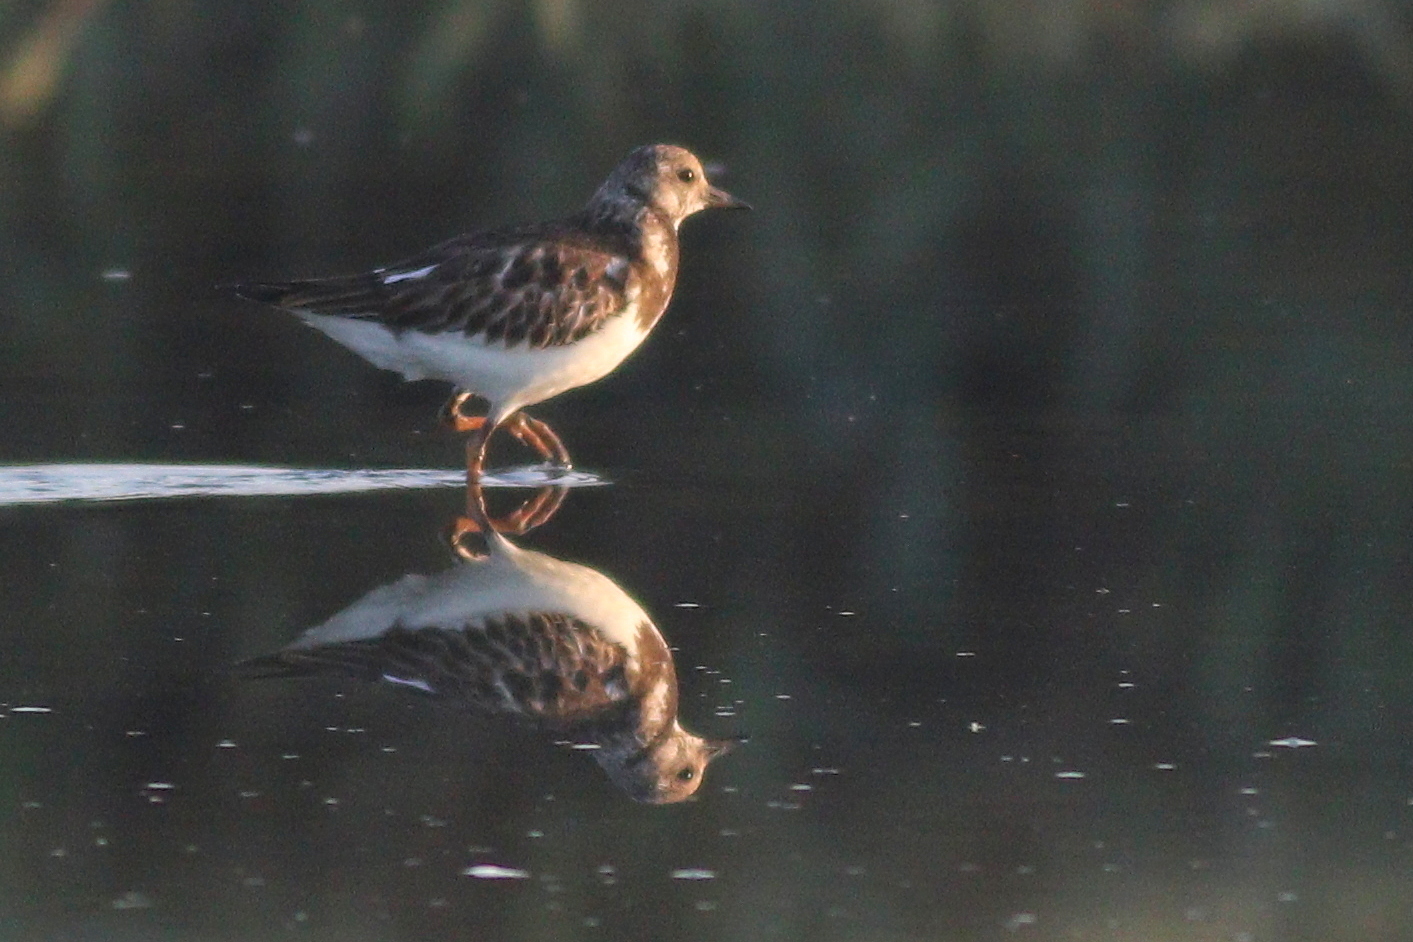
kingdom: Animalia
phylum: Chordata
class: Aves
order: Charadriiformes
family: Scolopacidae
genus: Arenaria
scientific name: Arenaria interpres
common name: Ruddy turnstone
